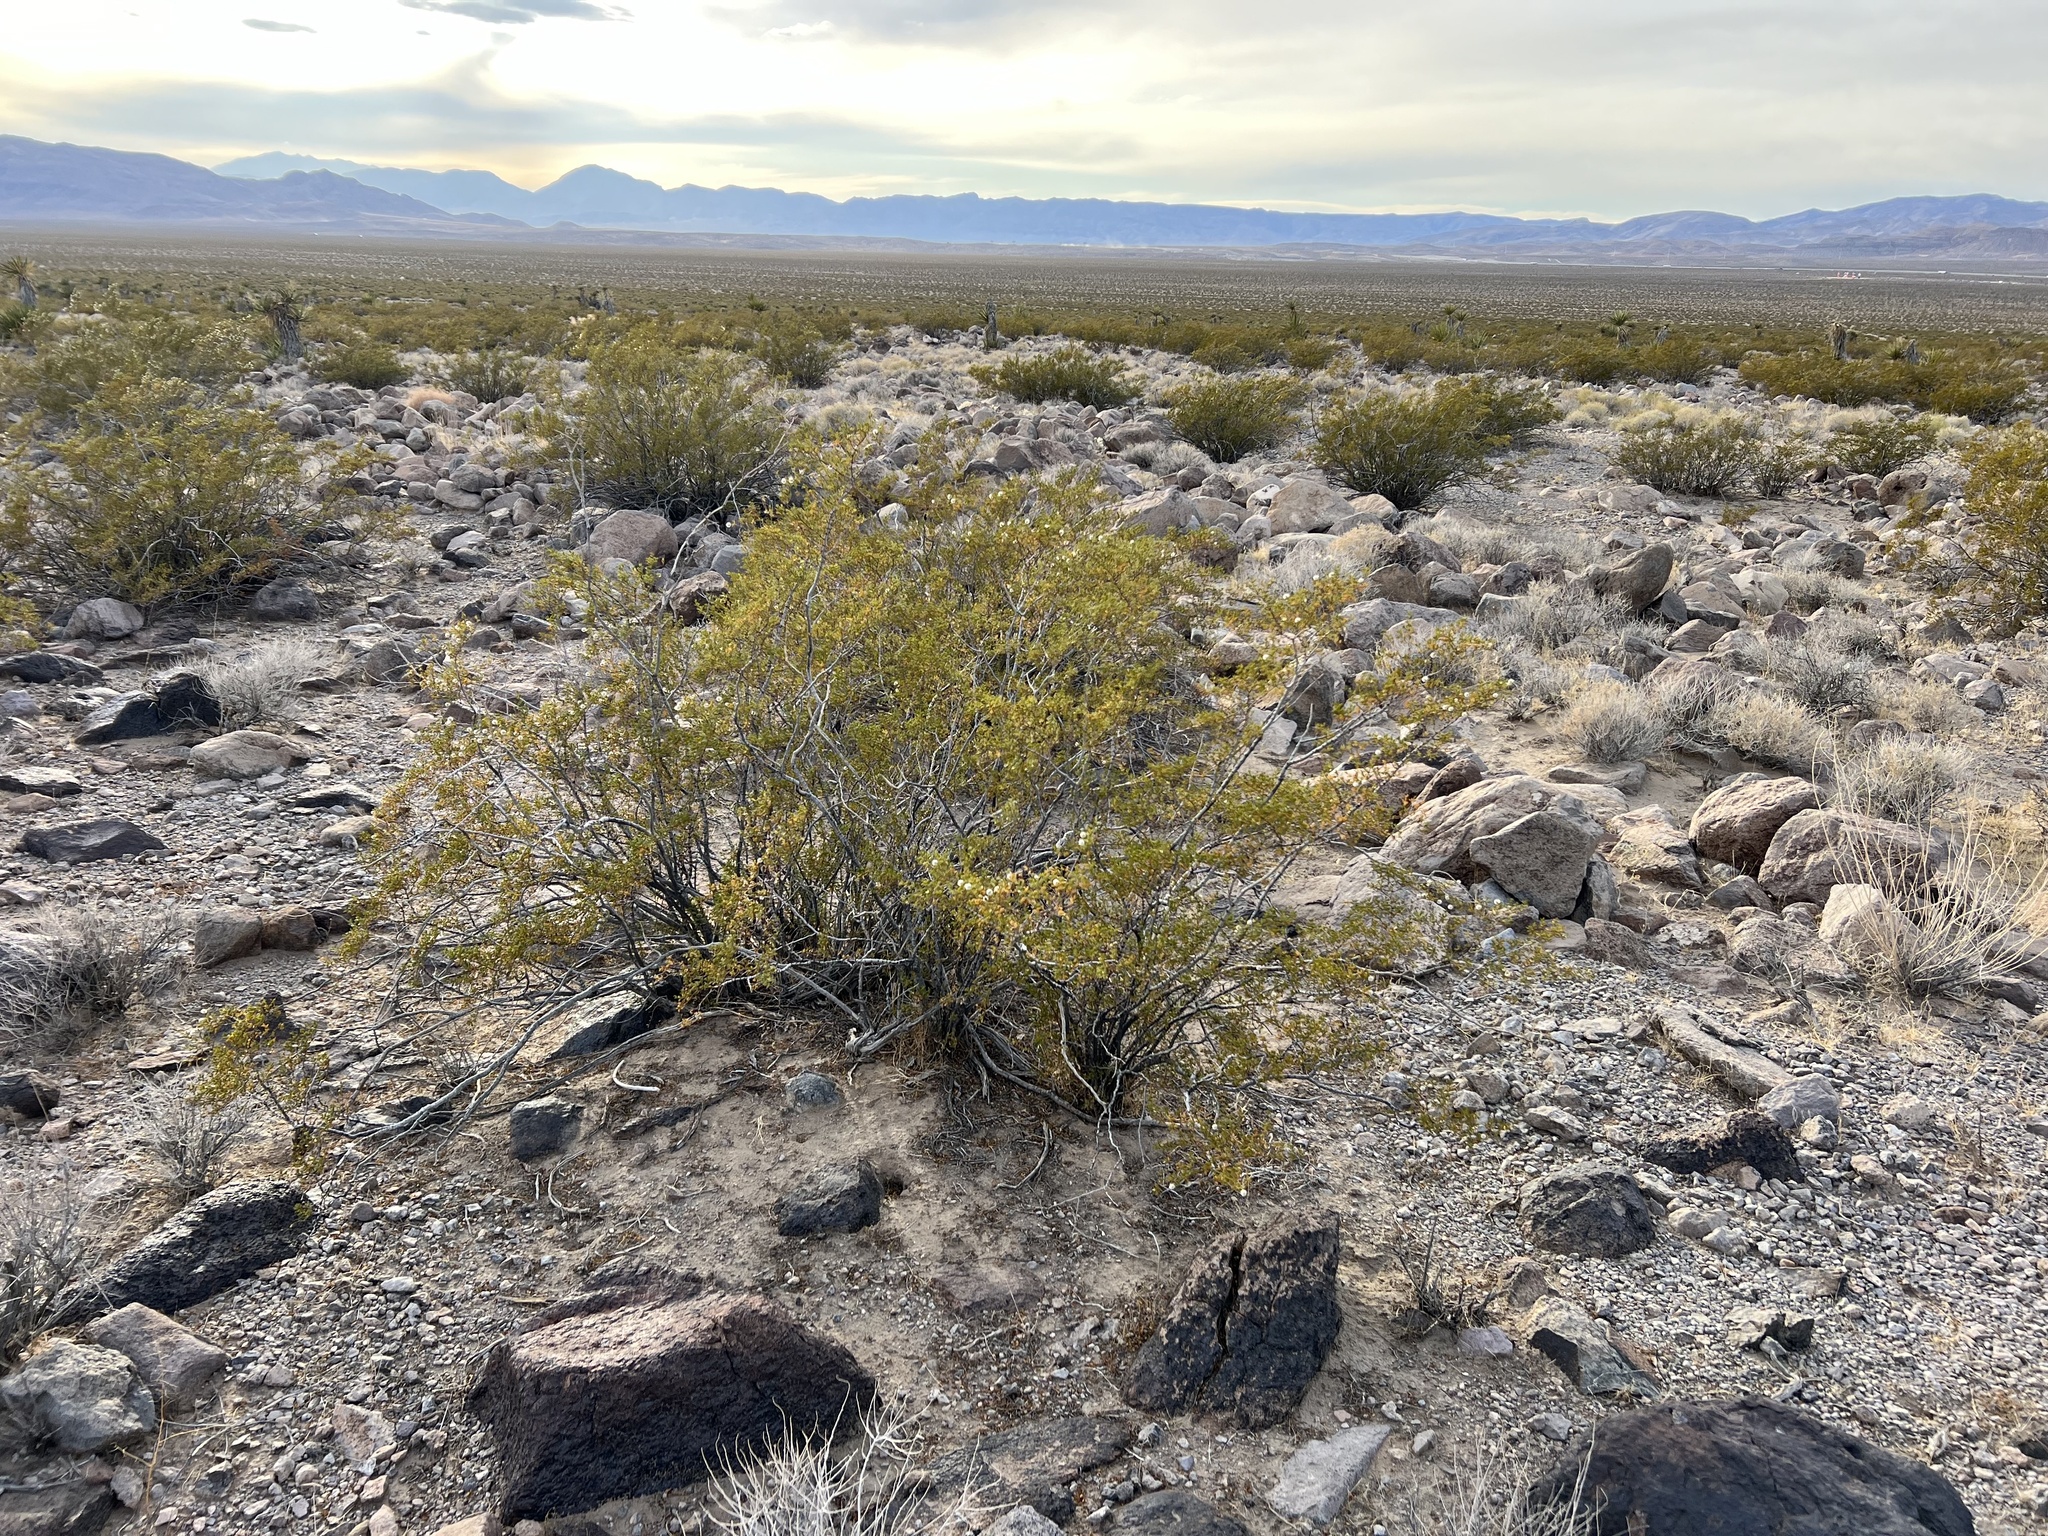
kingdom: Plantae
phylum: Tracheophyta
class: Magnoliopsida
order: Zygophyllales
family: Zygophyllaceae
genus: Larrea
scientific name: Larrea tridentata
